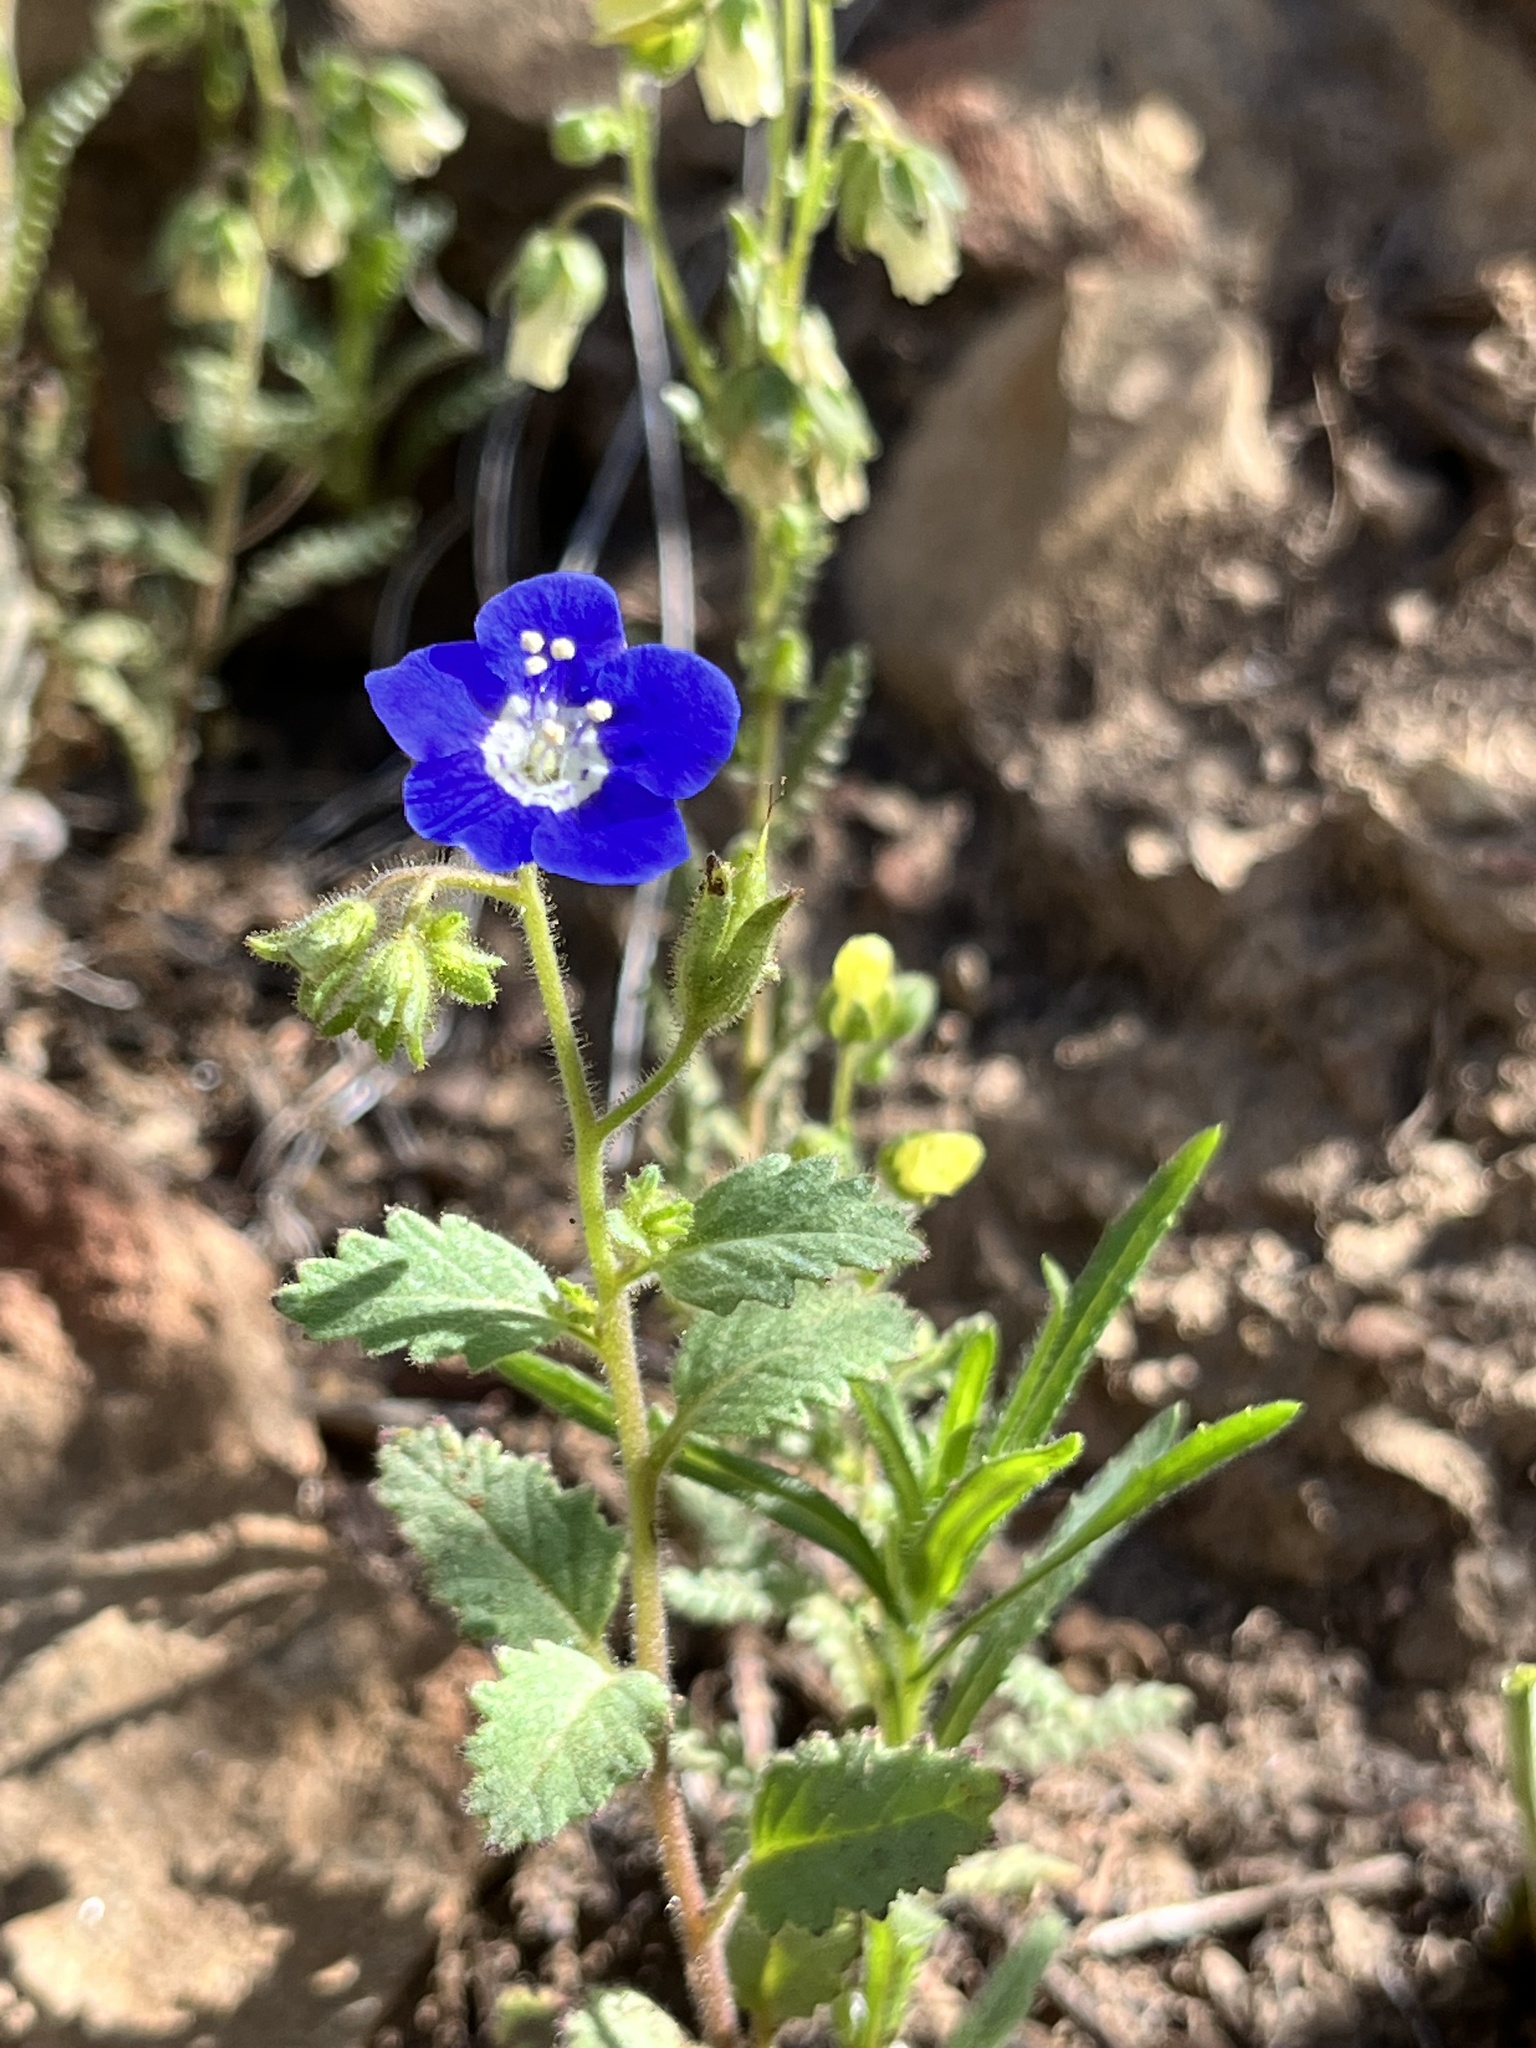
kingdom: Plantae
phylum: Tracheophyta
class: Magnoliopsida
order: Boraginales
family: Hydrophyllaceae
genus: Phacelia
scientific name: Phacelia viscida
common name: Sticky phacelia
